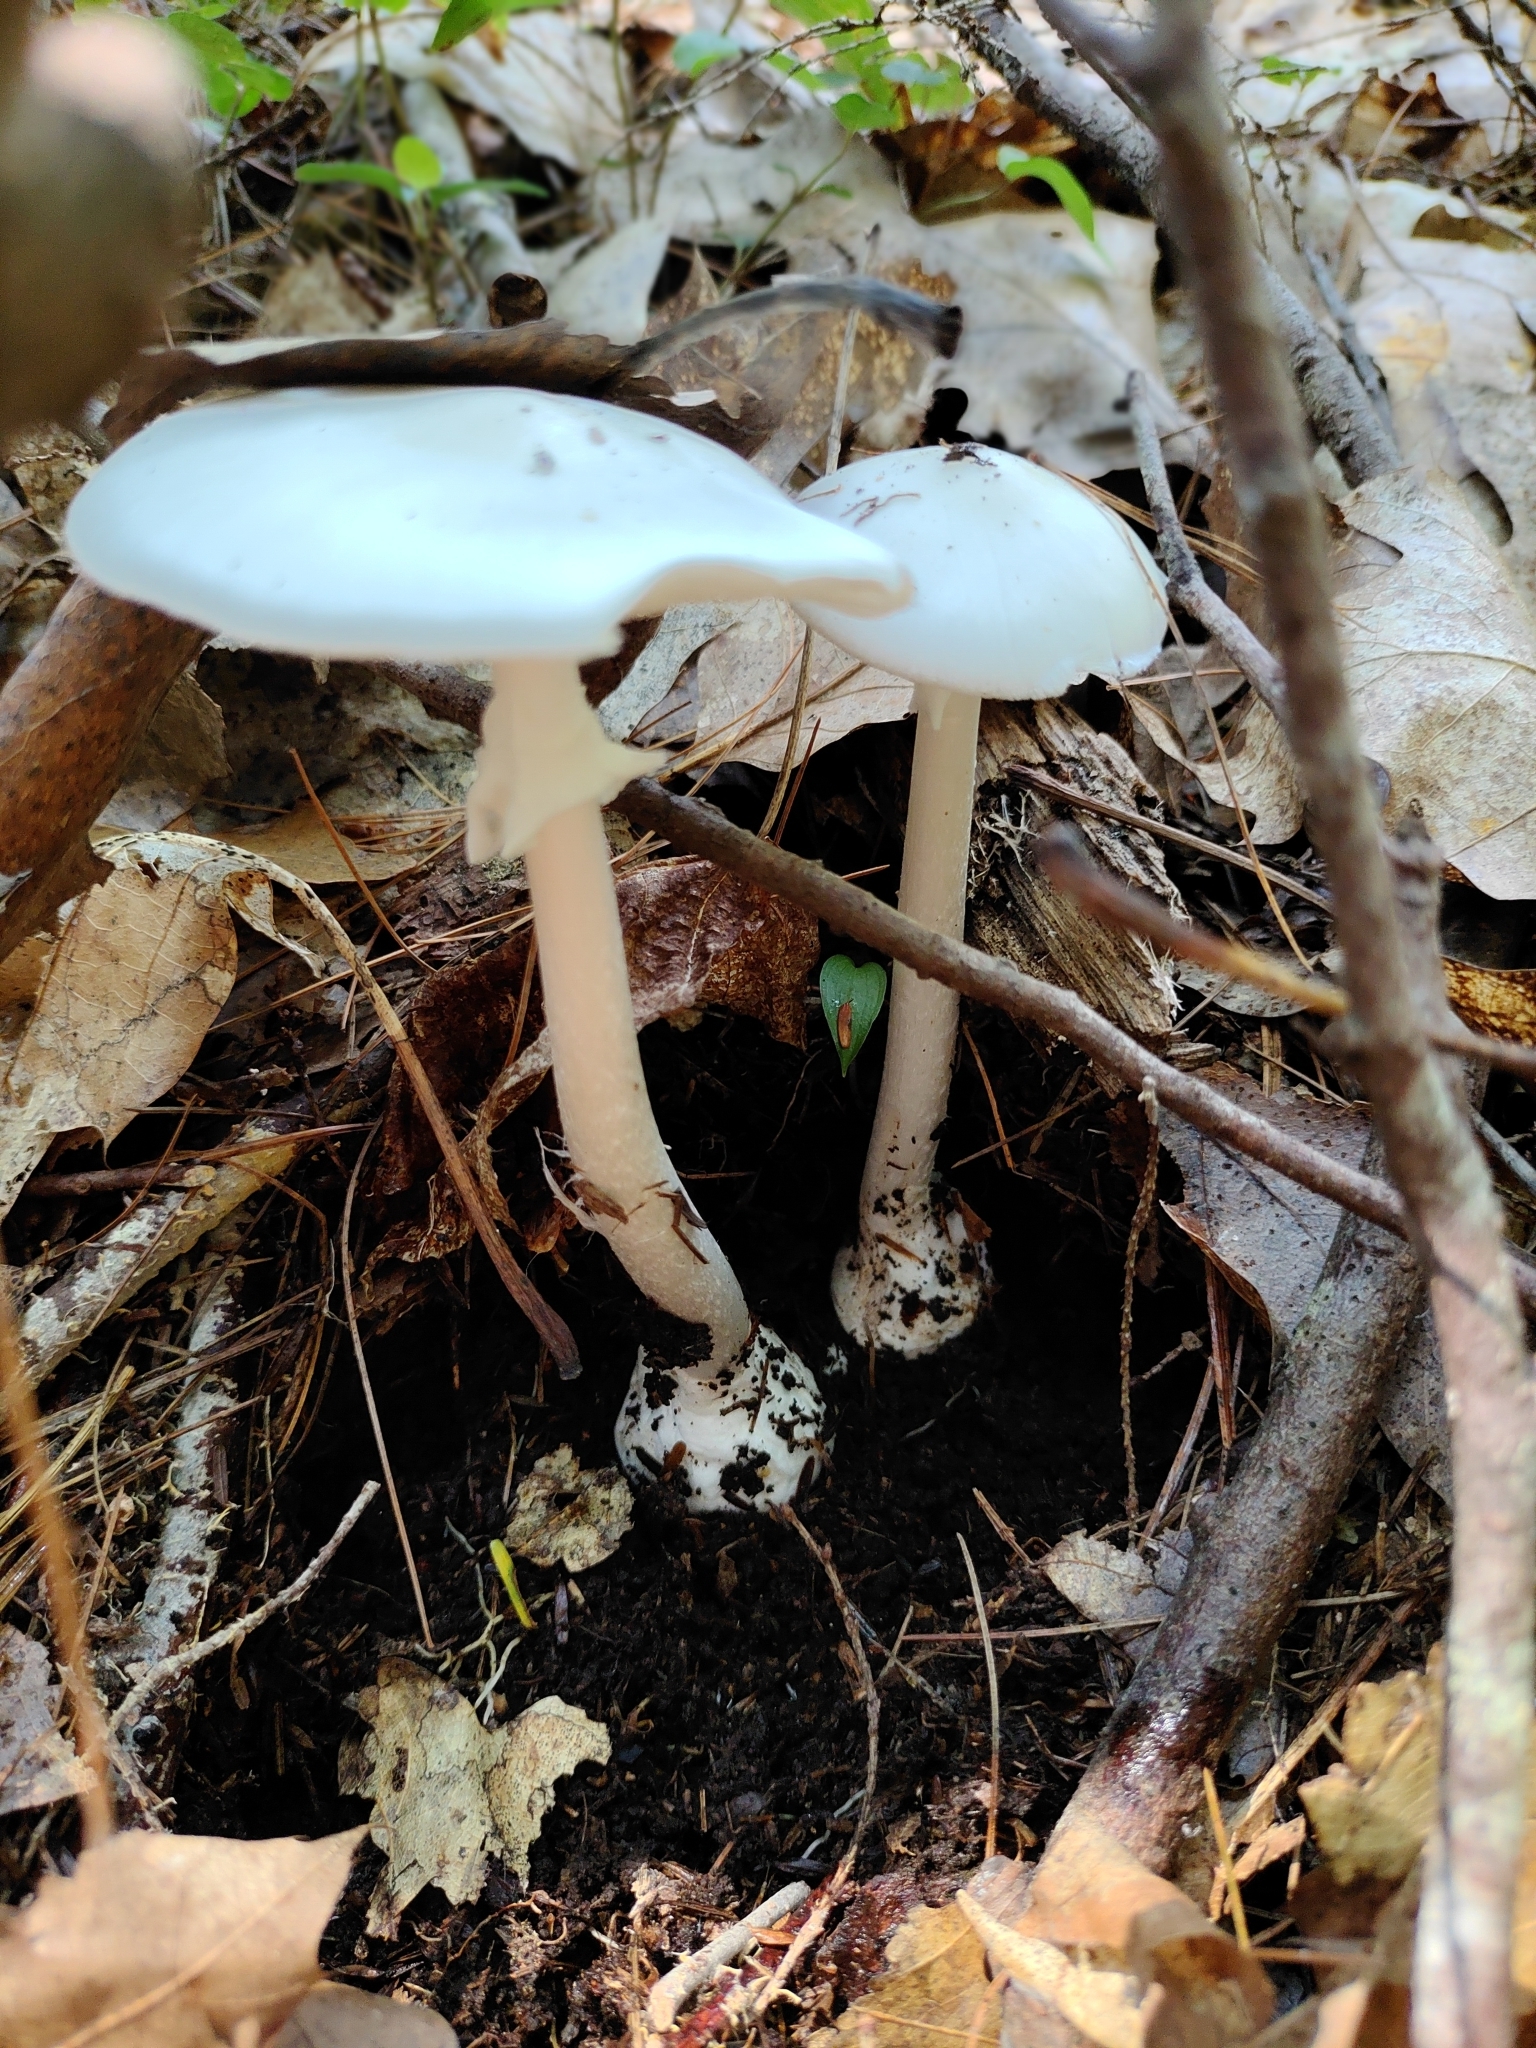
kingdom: Fungi
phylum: Basidiomycota
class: Agaricomycetes
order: Agaricales
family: Amanitaceae
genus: Amanita
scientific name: Amanita bisporigera
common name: Eastern north american destroying angel
